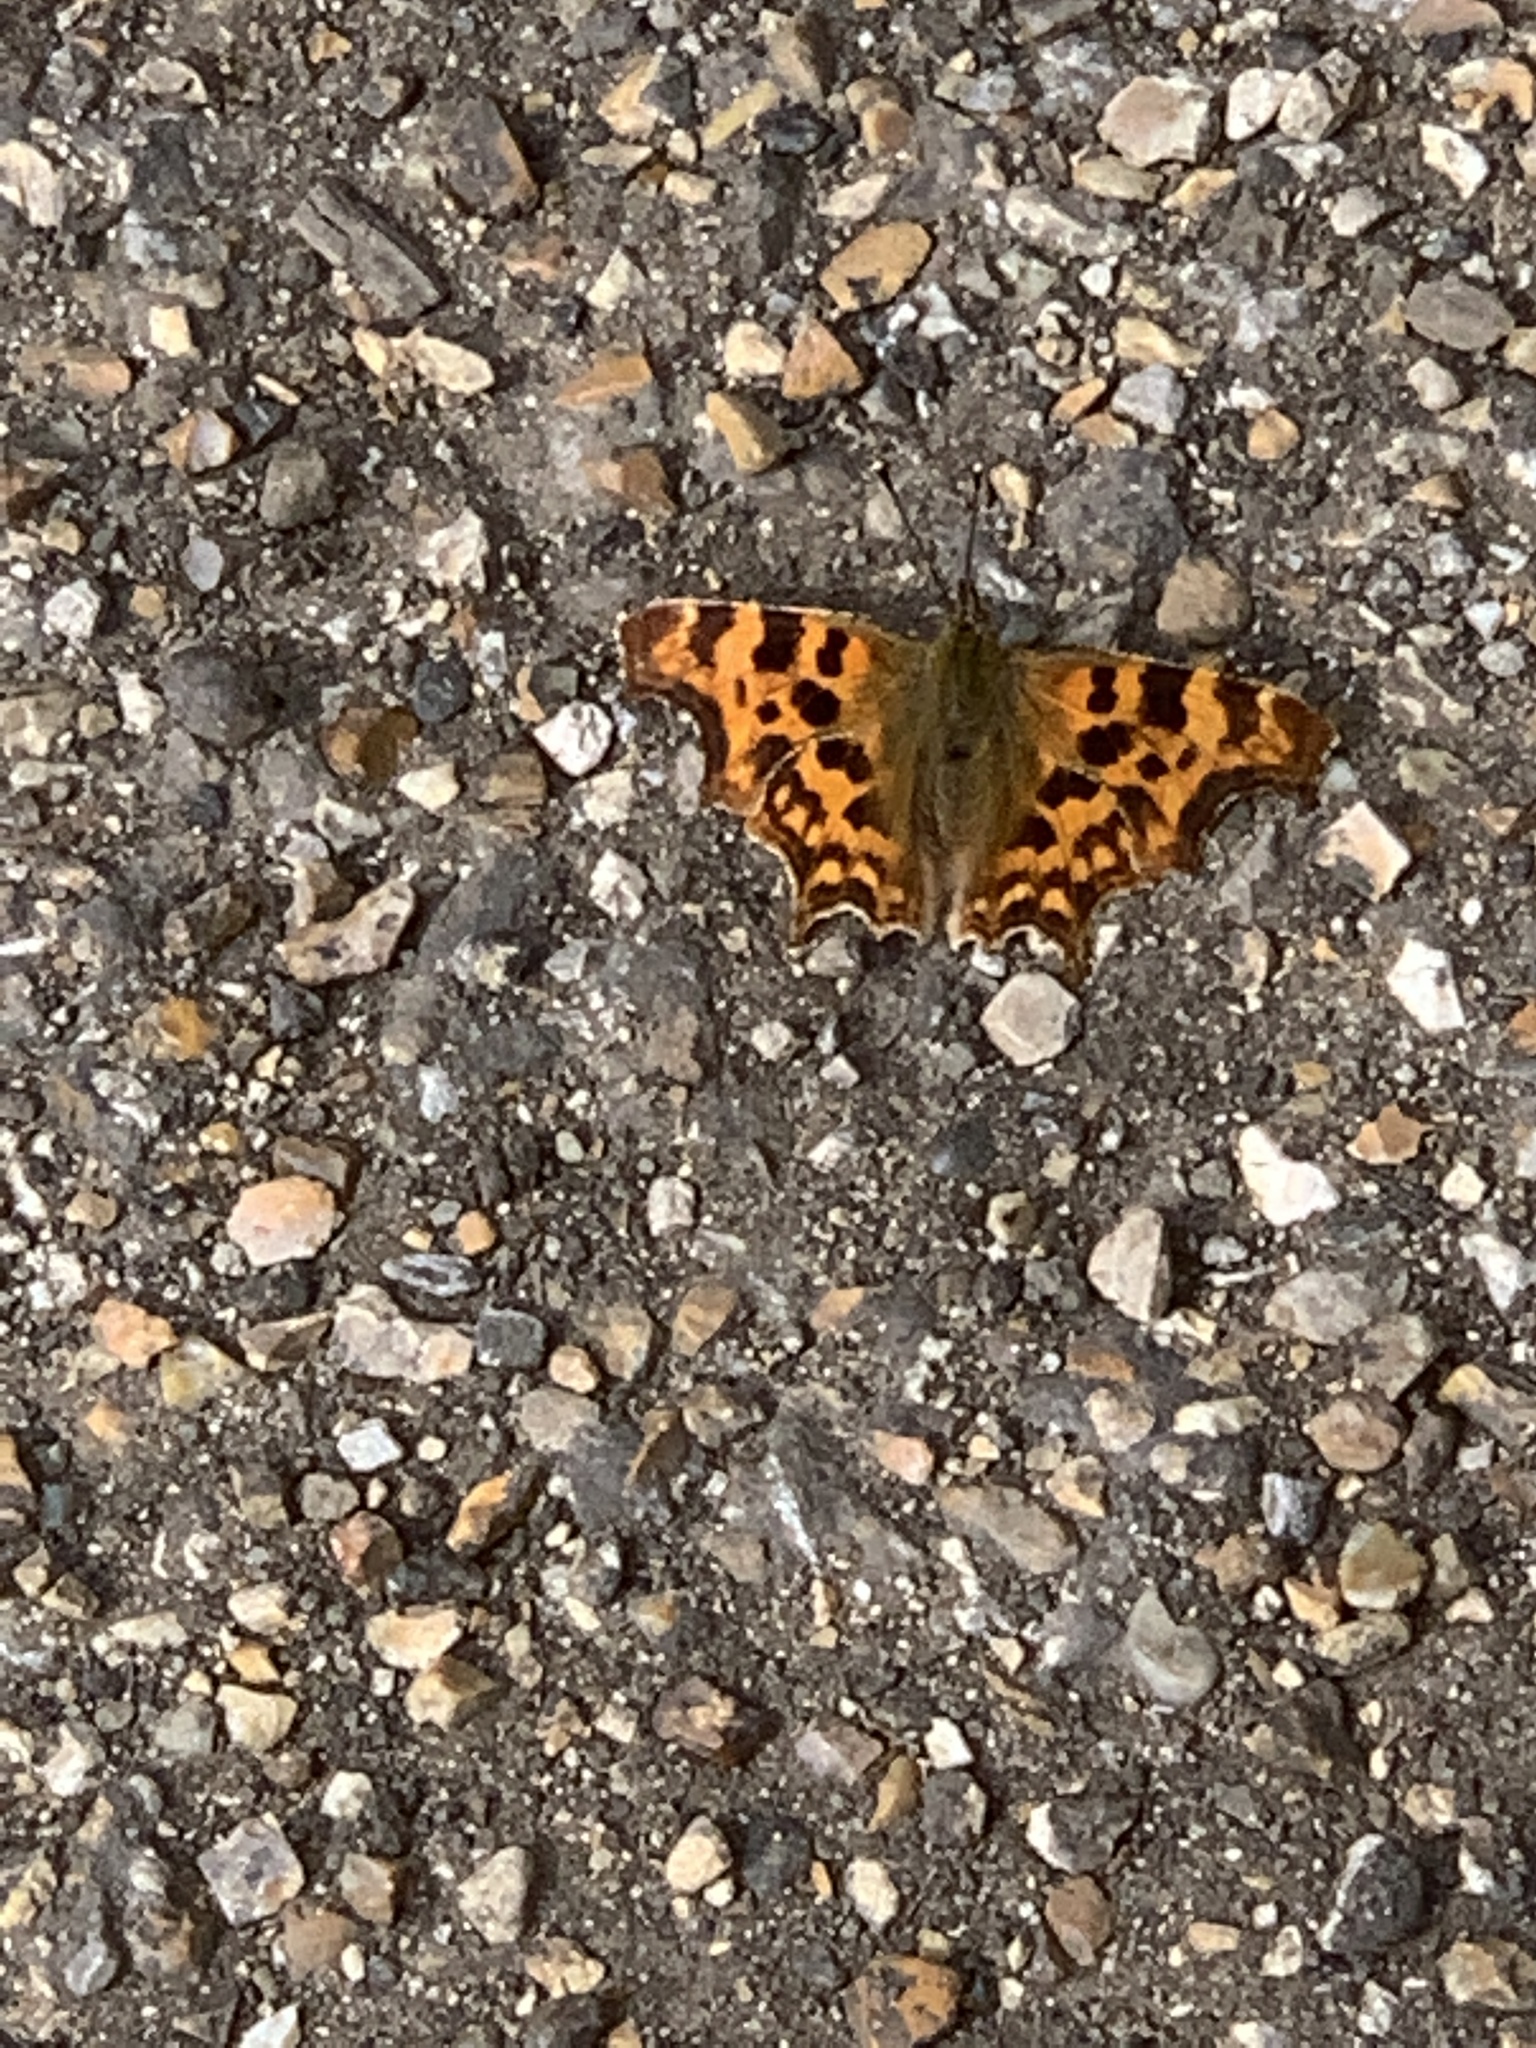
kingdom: Animalia
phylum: Arthropoda
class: Insecta
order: Lepidoptera
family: Nymphalidae
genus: Polygonia
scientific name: Polygonia c-album
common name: Comma
